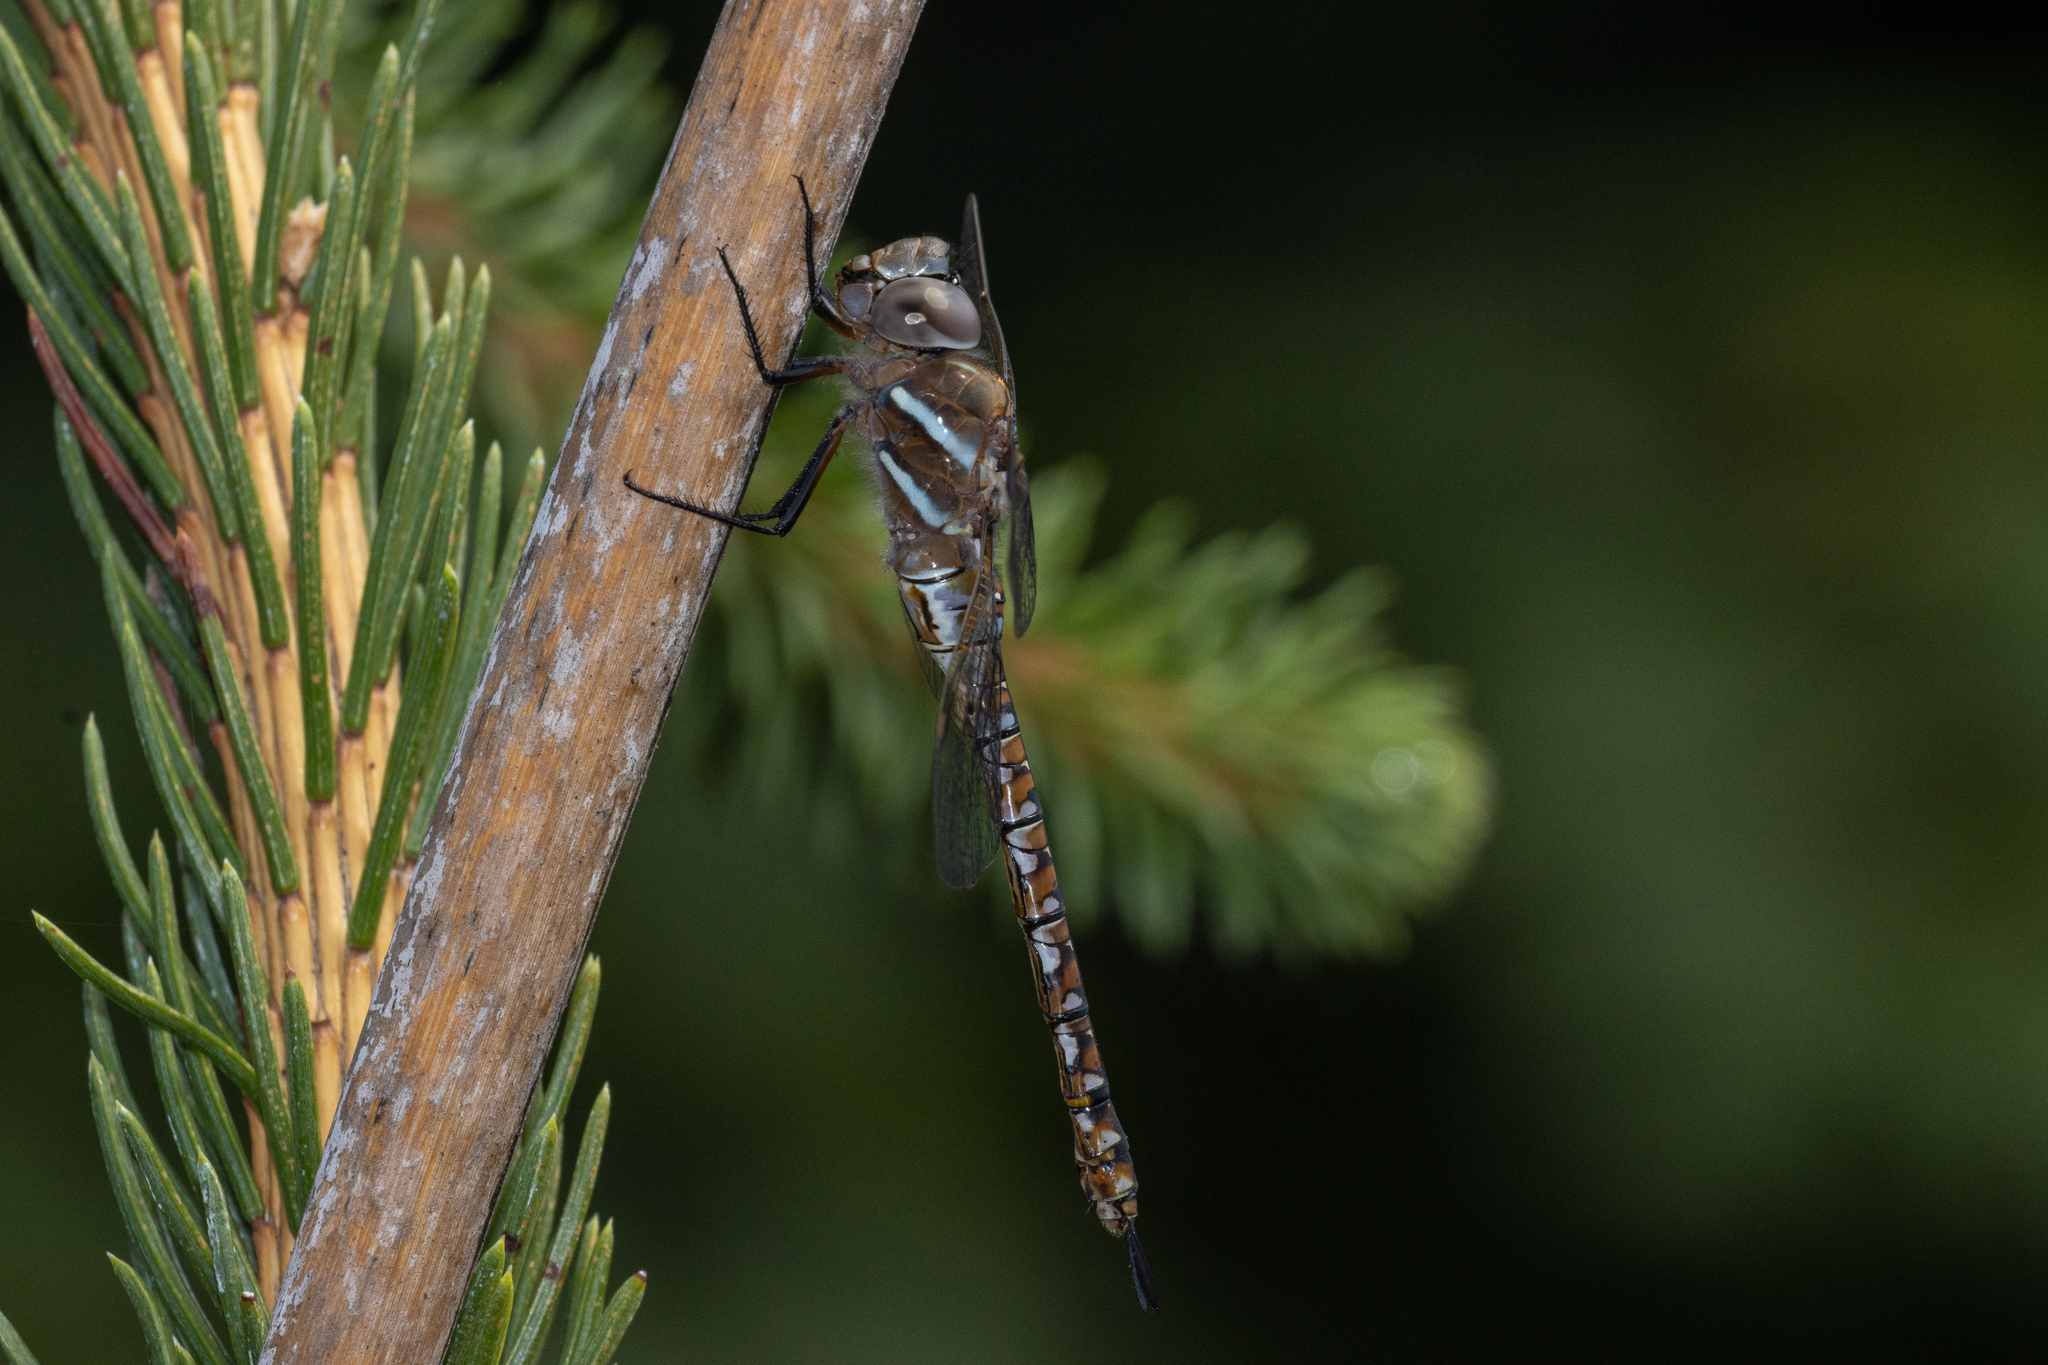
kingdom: Animalia
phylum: Arthropoda
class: Insecta
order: Odonata
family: Aeshnidae
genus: Rhionaeschna
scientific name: Rhionaeschna multicolor
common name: Blue-eyed darner
